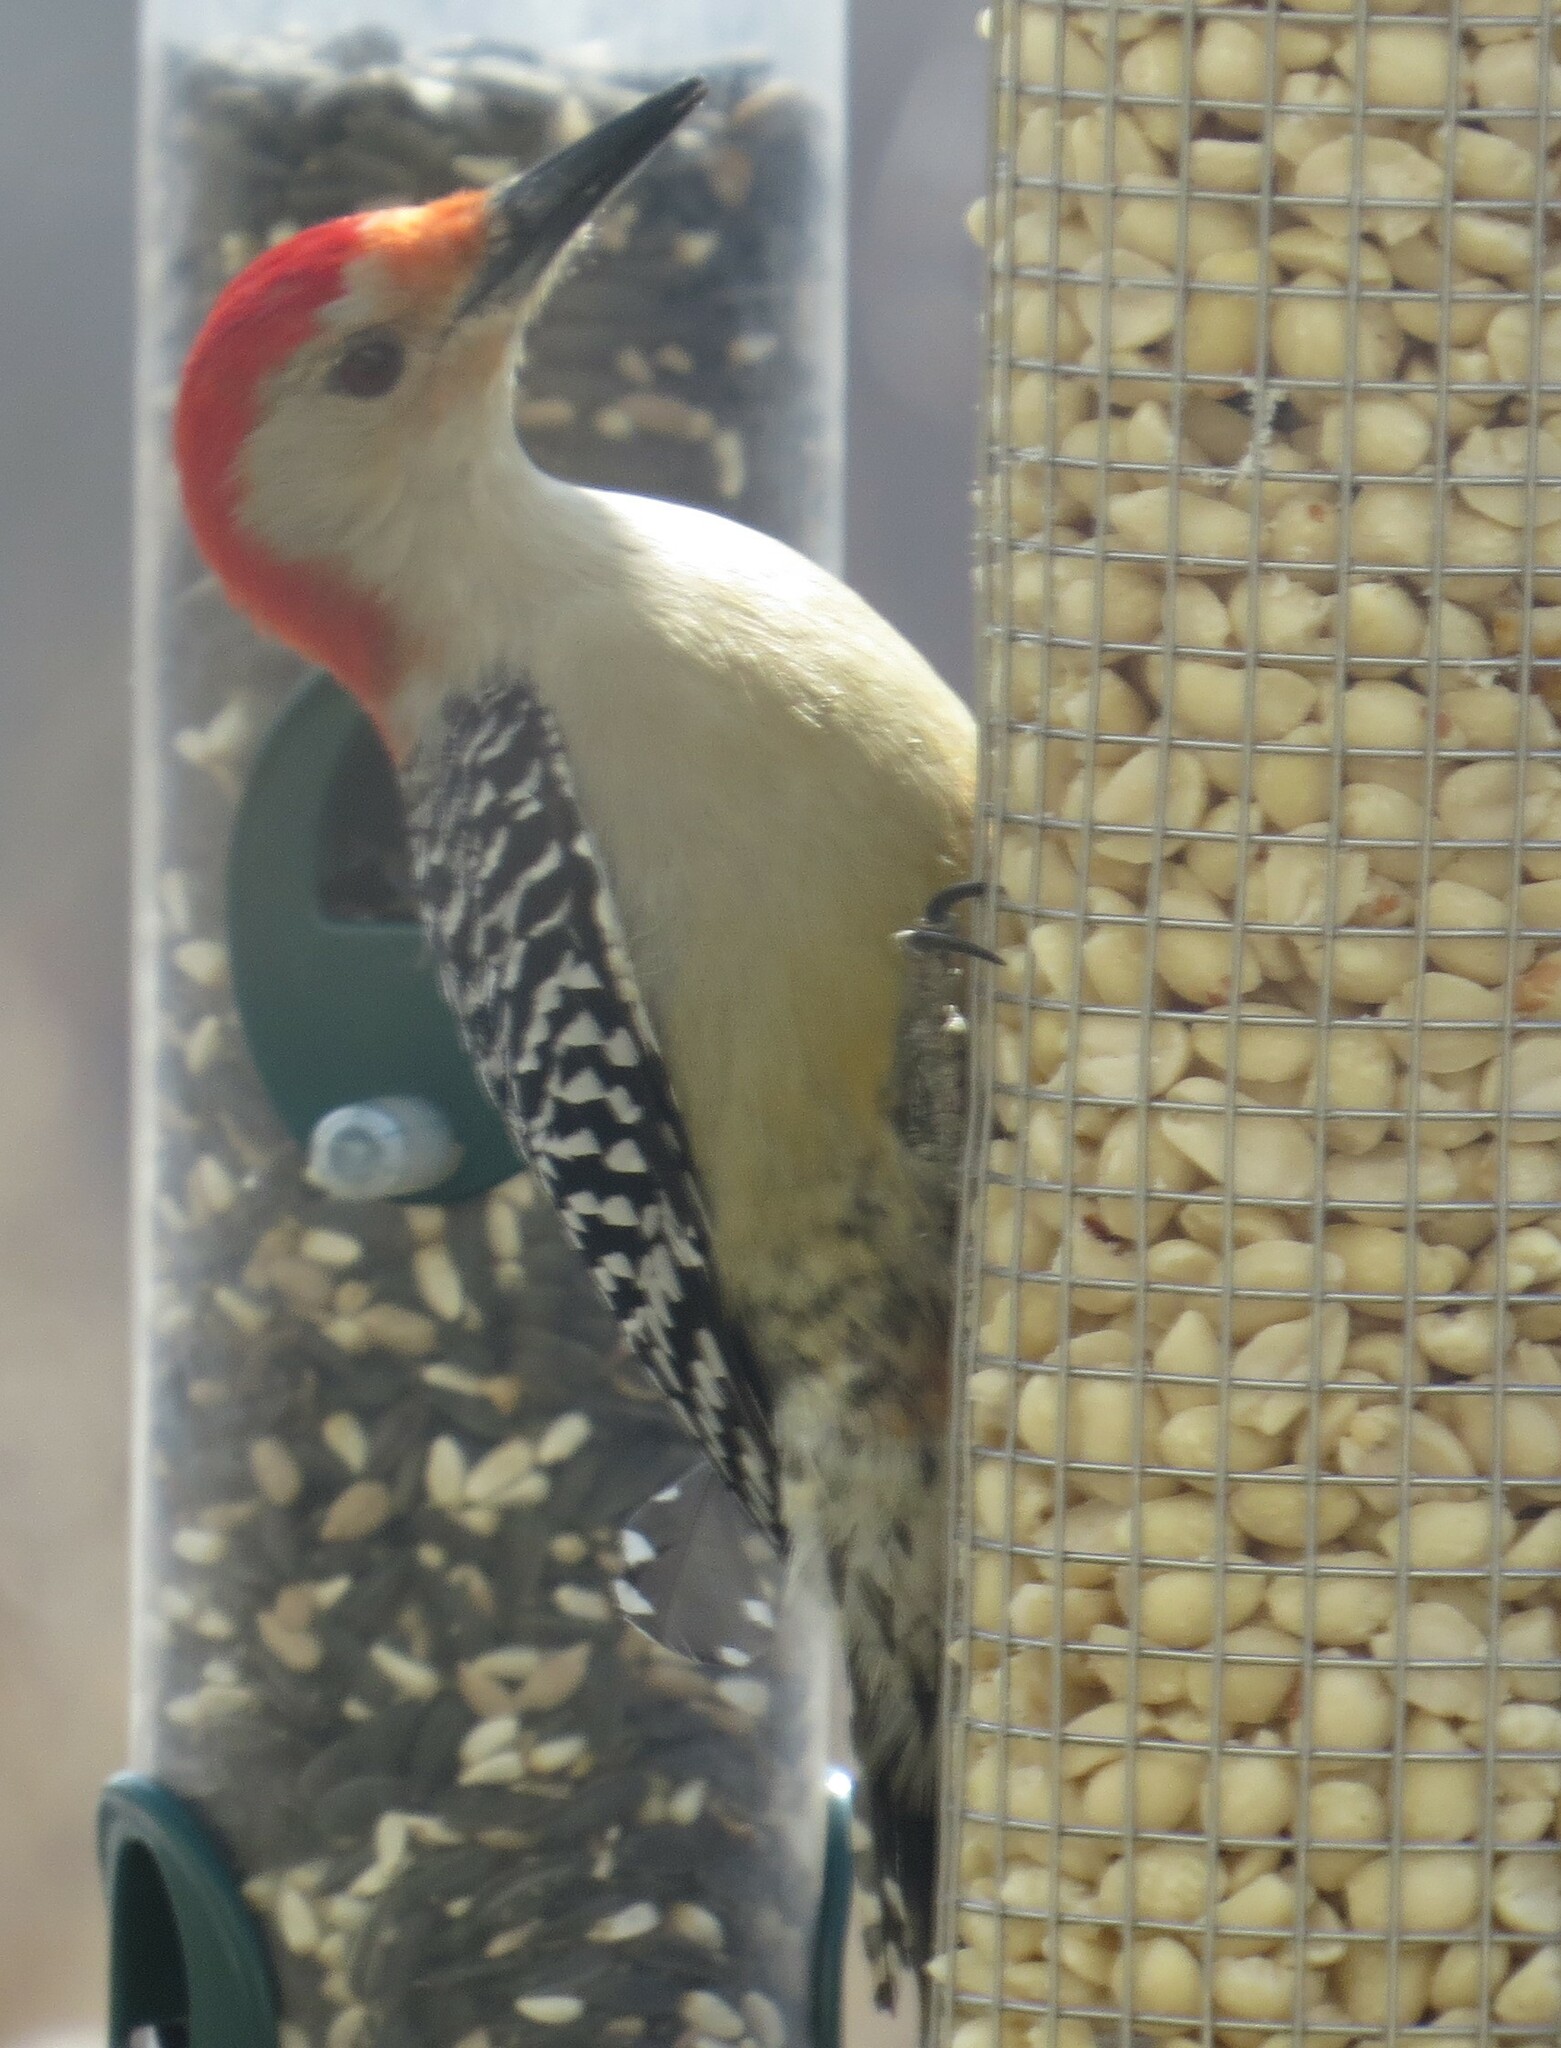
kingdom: Animalia
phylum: Chordata
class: Aves
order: Piciformes
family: Picidae
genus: Melanerpes
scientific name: Melanerpes carolinus
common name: Red-bellied woodpecker
